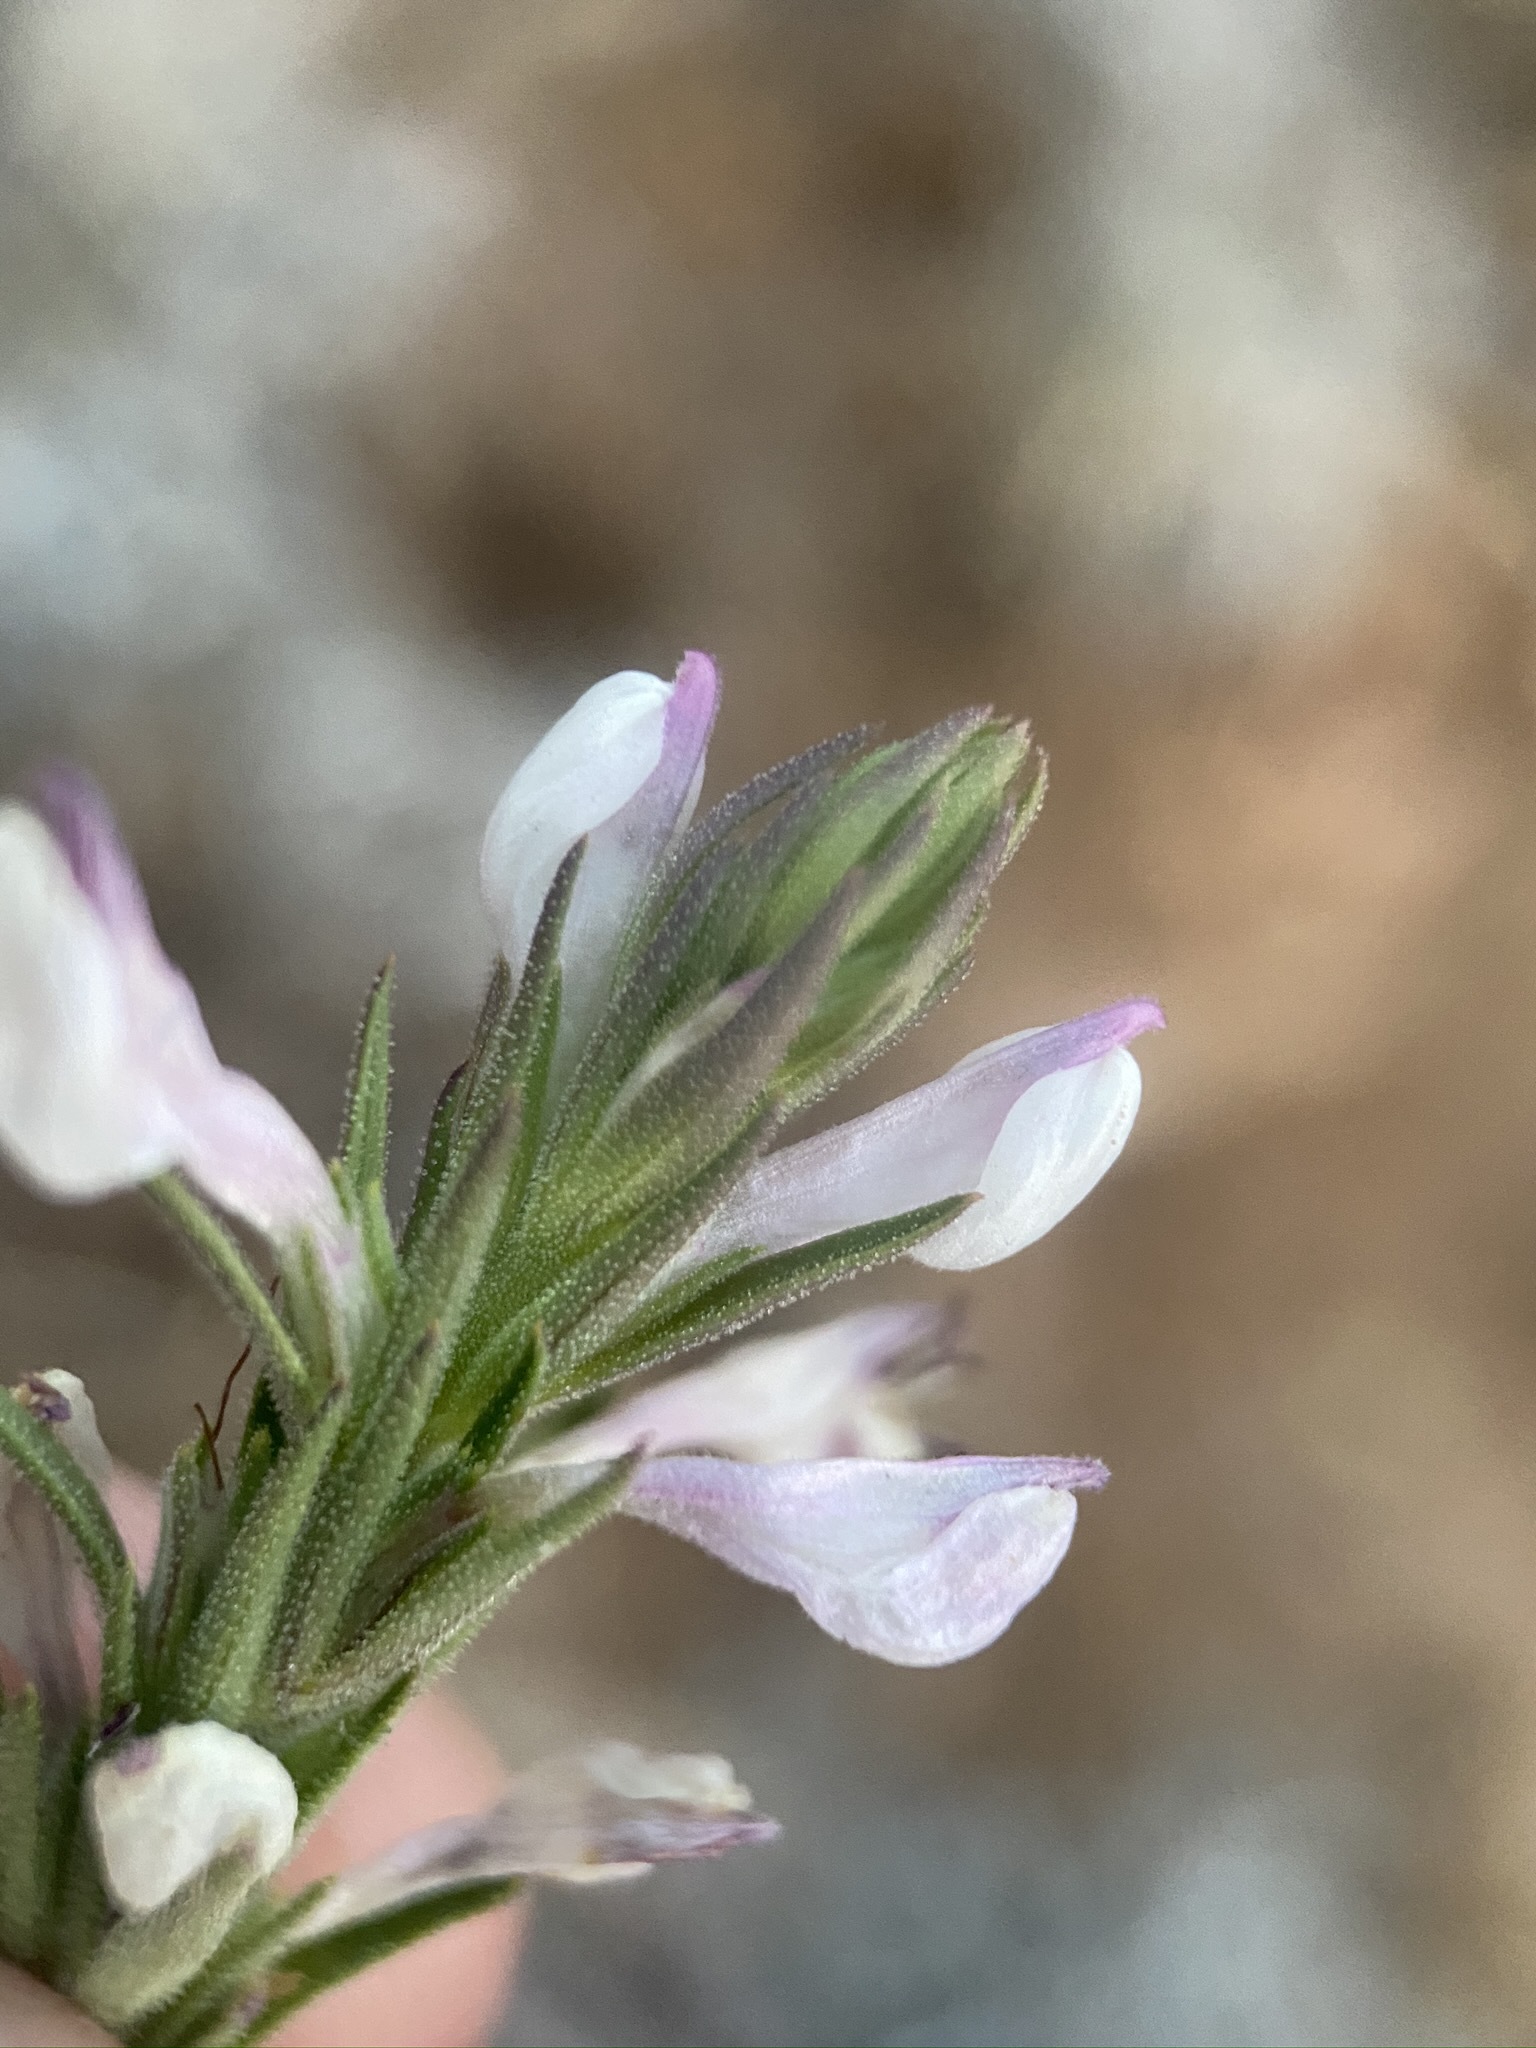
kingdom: Plantae
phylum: Tracheophyta
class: Magnoliopsida
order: Lamiales
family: Orobanchaceae
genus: Orthocarpus
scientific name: Orthocarpus purpureoalbus
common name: Violet owl-clover
